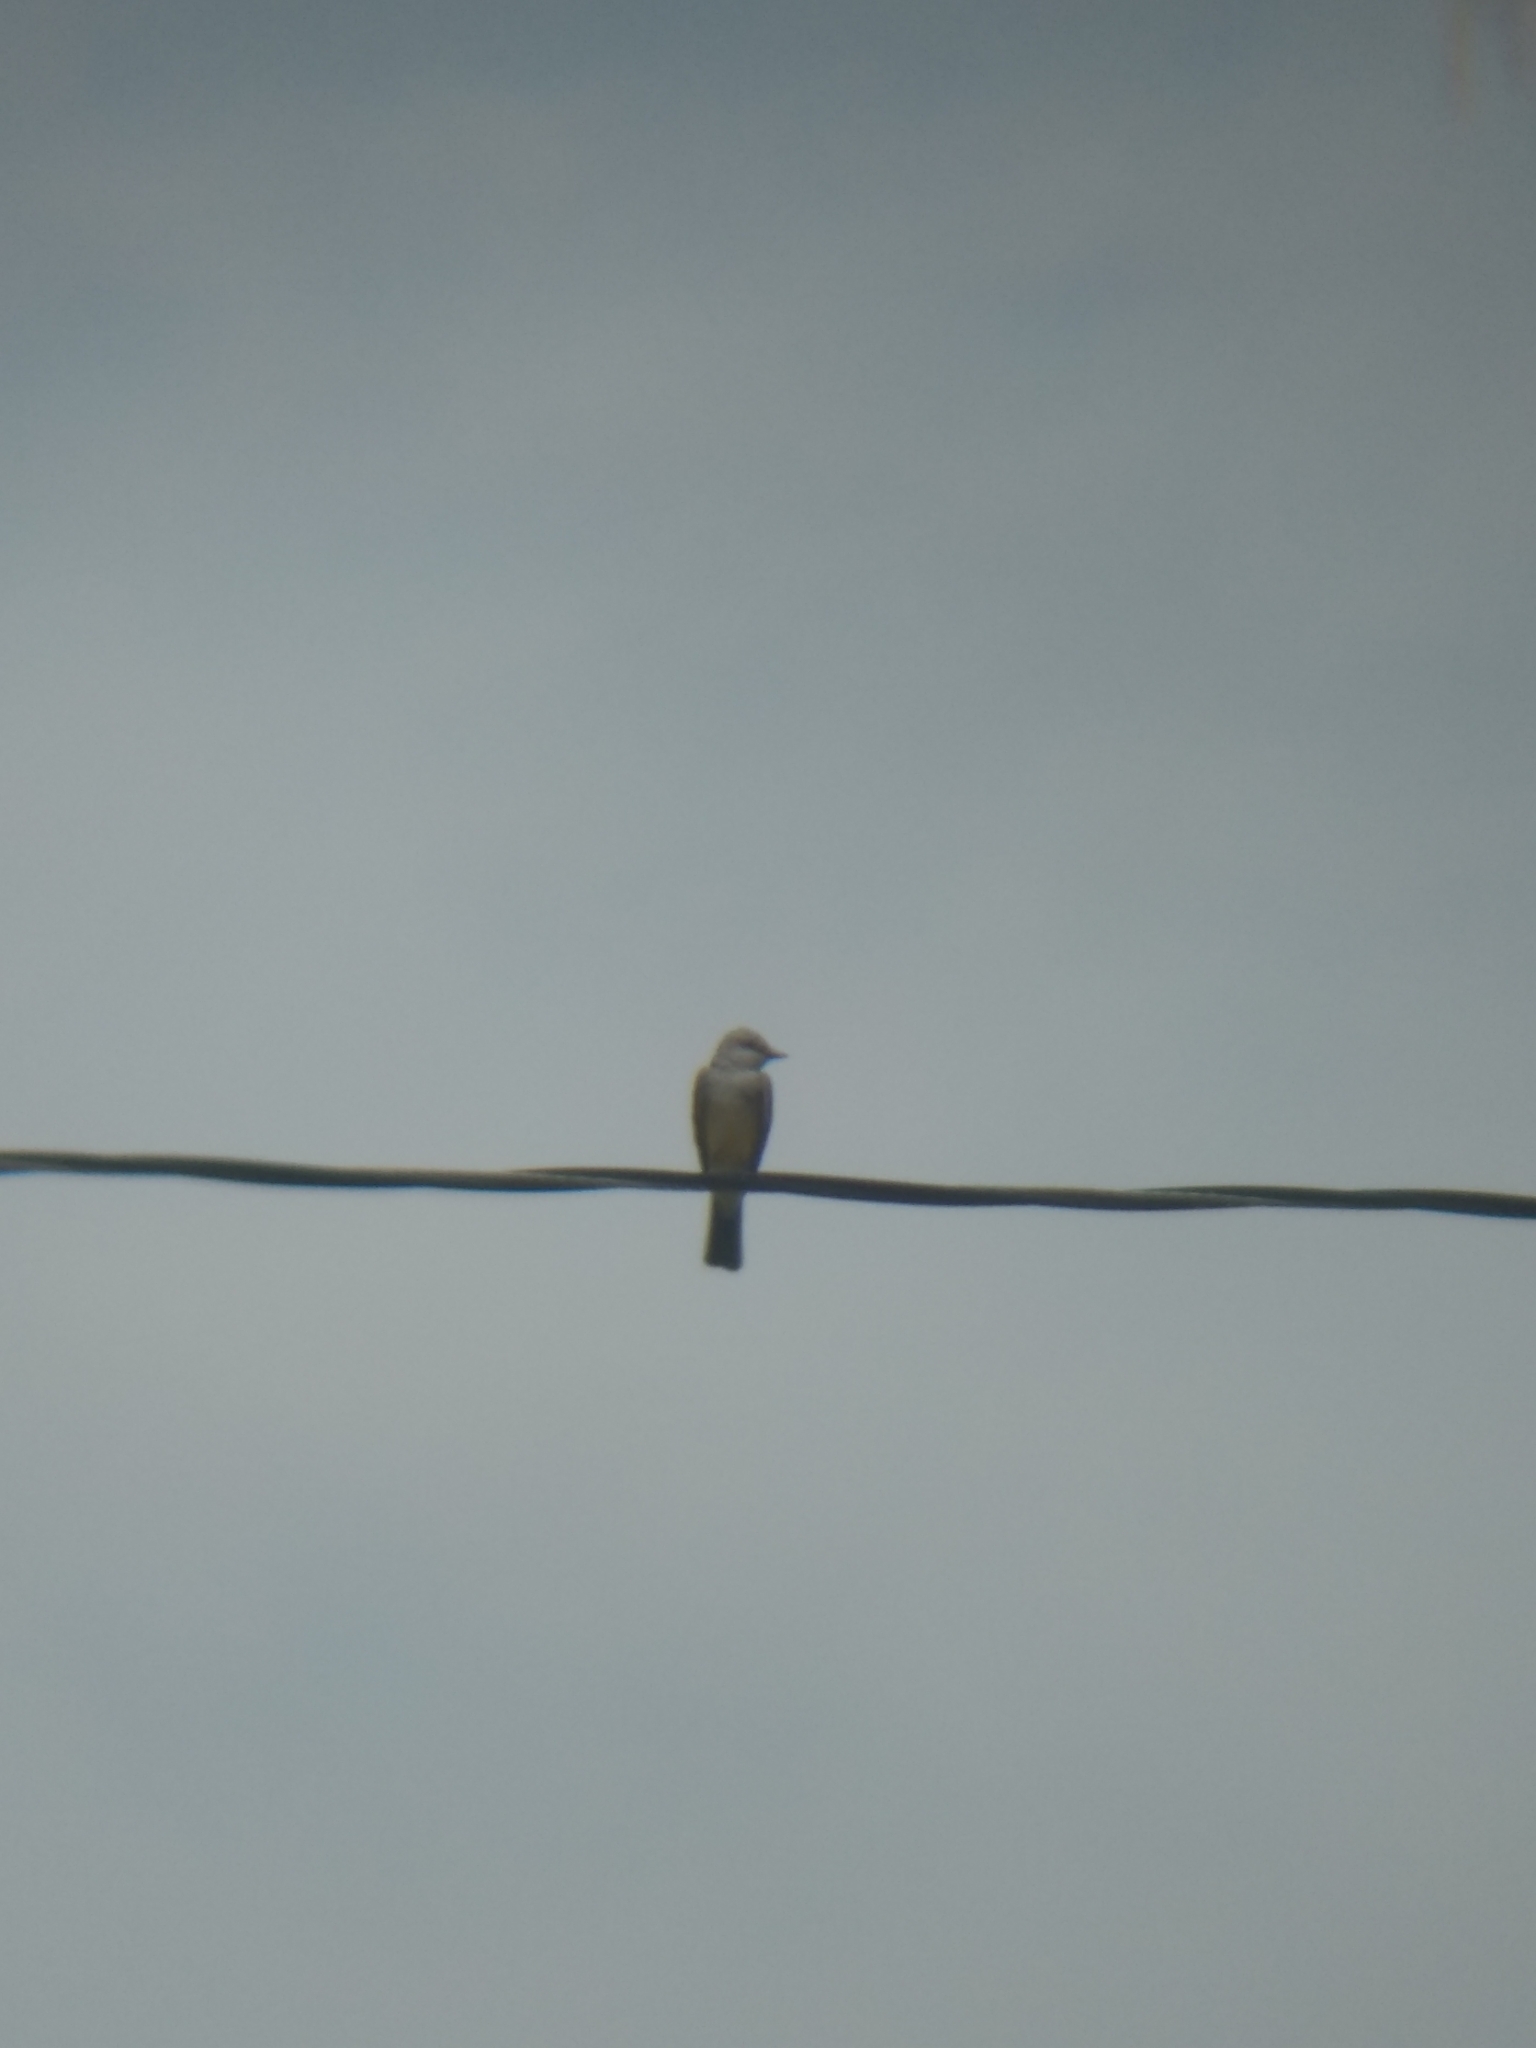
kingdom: Animalia
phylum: Chordata
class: Aves
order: Passeriformes
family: Tyrannidae
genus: Tyrannus
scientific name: Tyrannus verticalis
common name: Western kingbird
